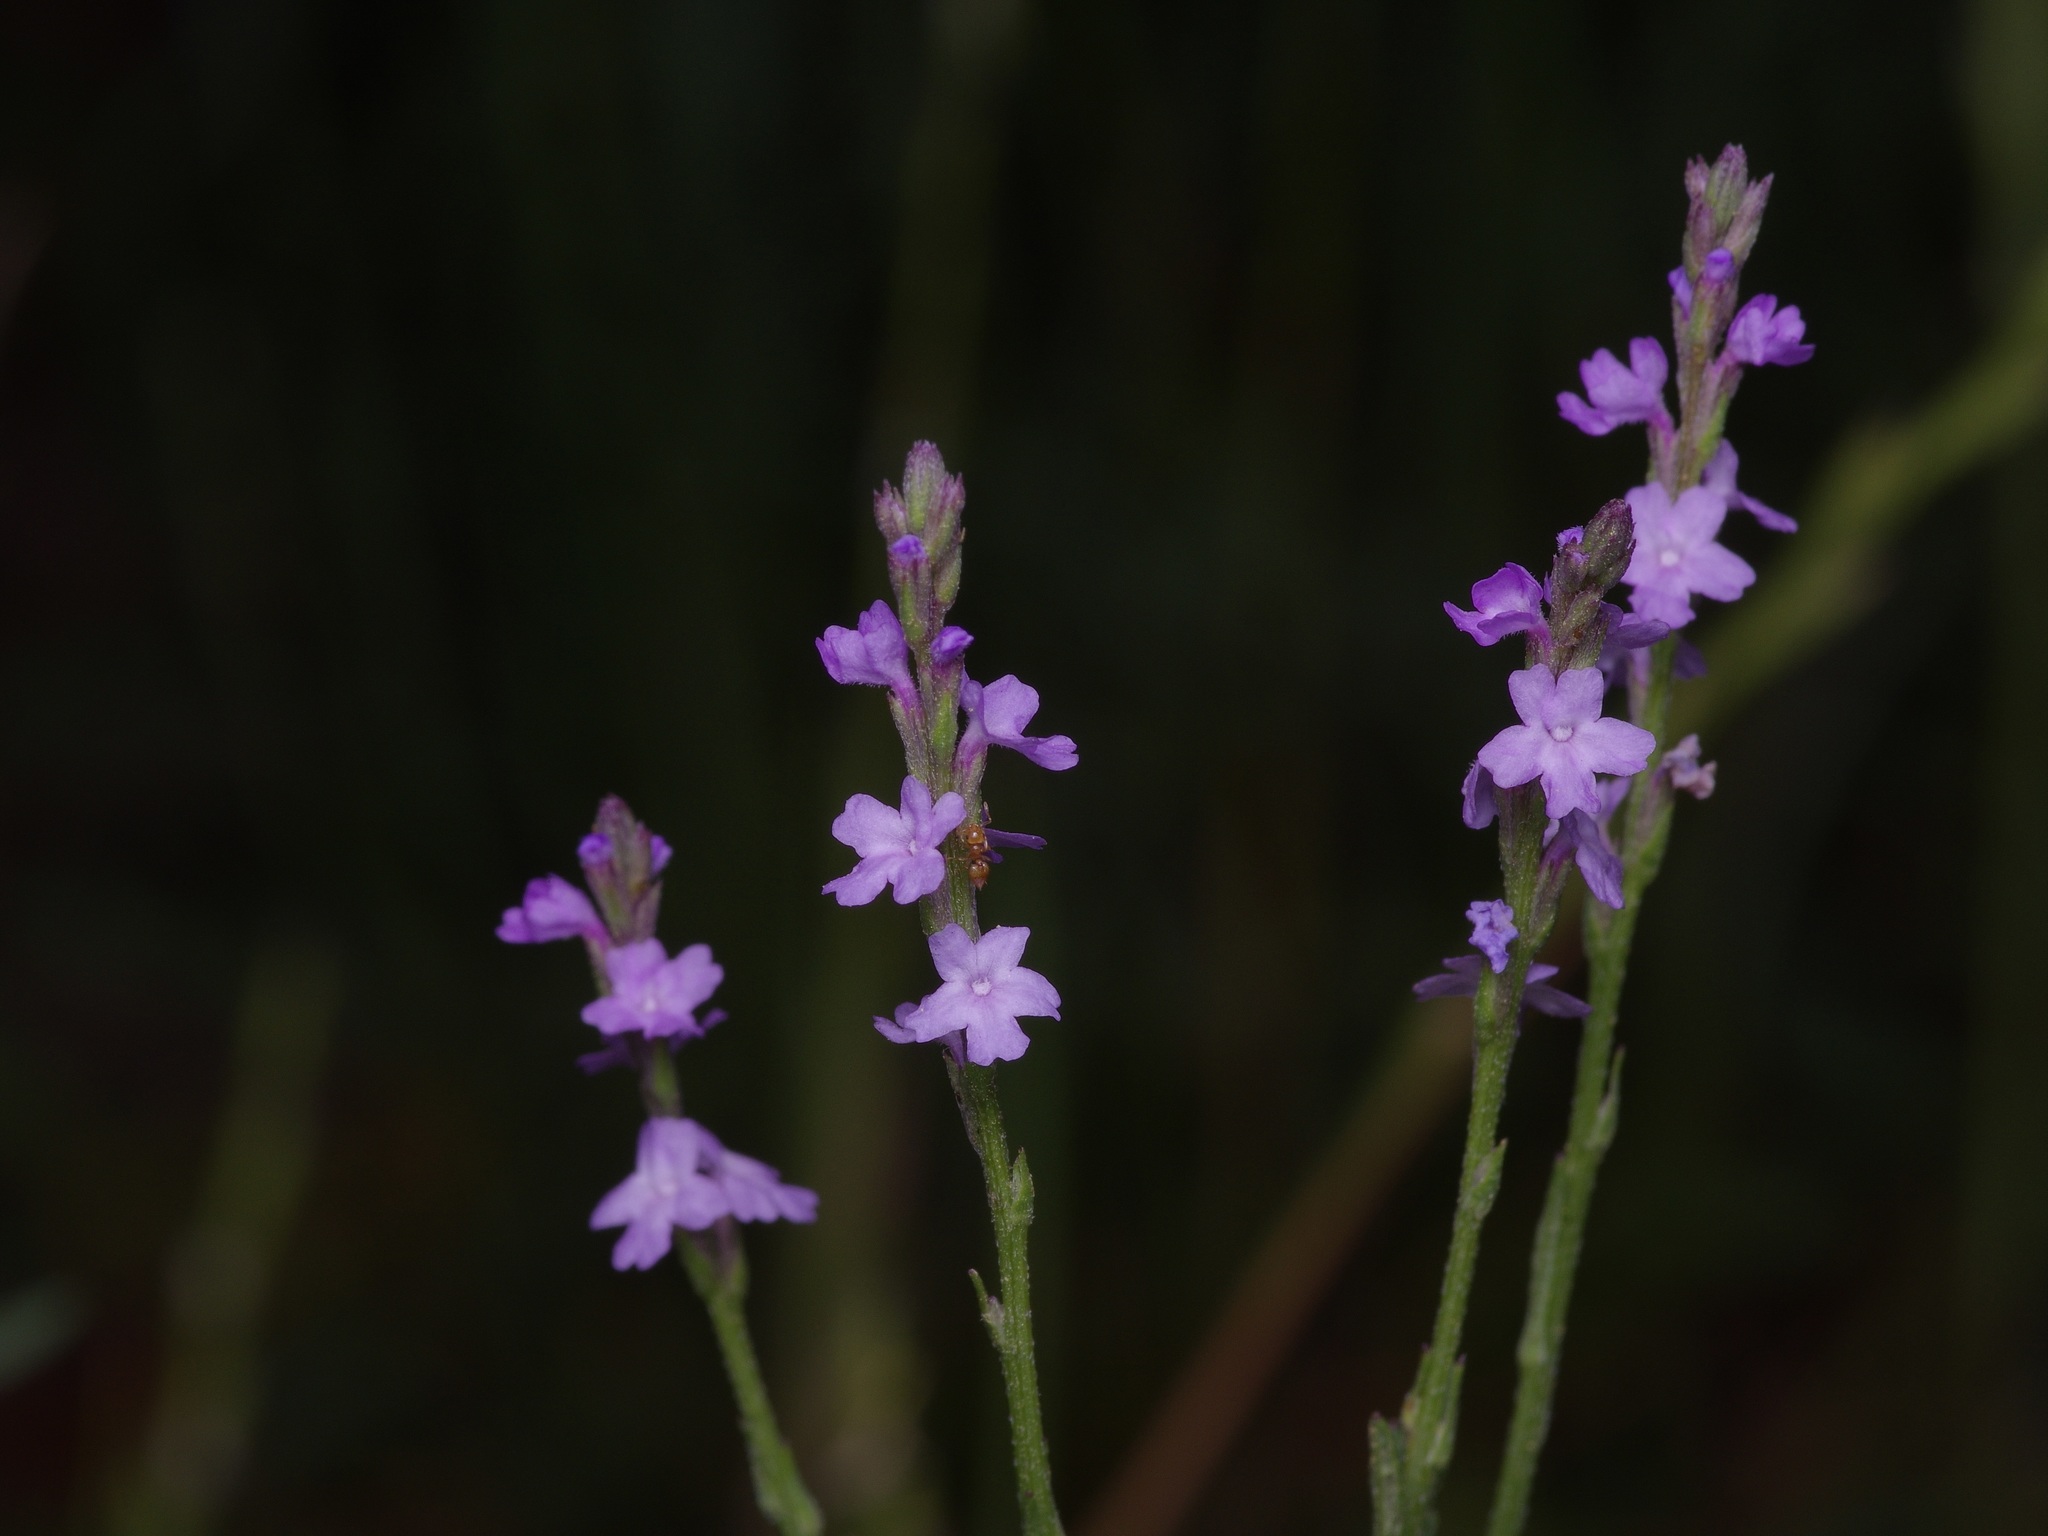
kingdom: Plantae
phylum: Tracheophyta
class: Magnoliopsida
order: Lamiales
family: Verbenaceae
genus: Verbena
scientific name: Verbena halei
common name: Texas vervain
